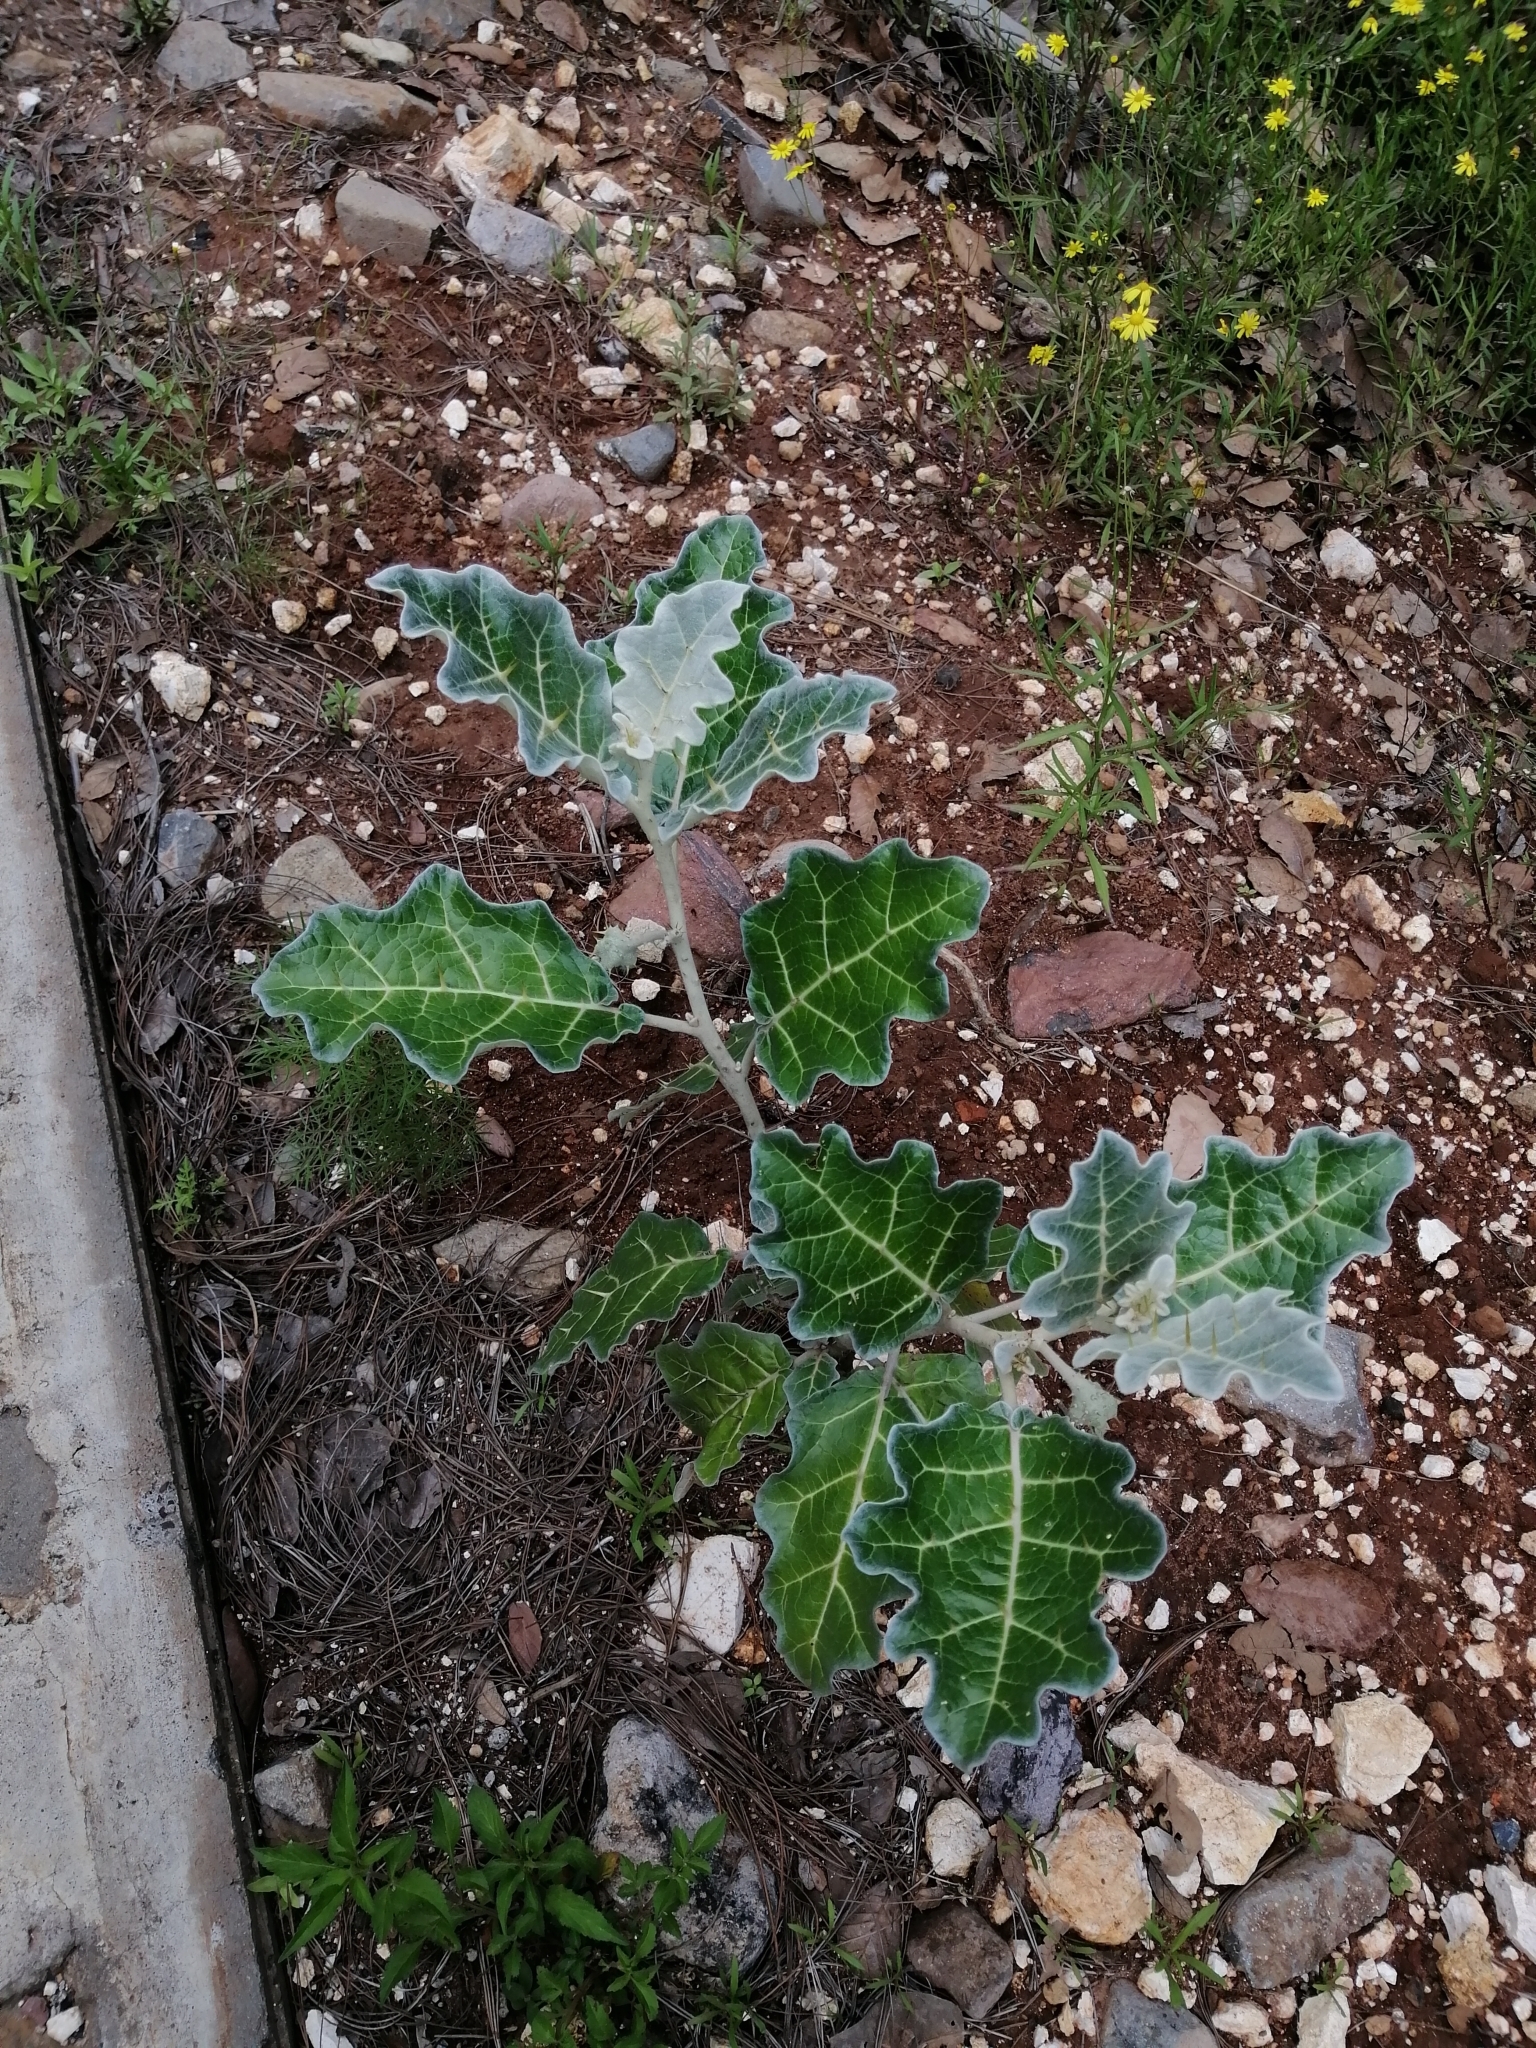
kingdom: Plantae
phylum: Tracheophyta
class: Magnoliopsida
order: Solanales
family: Solanaceae
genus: Solanum
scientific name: Solanum marginatum
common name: Purple african nightshade
